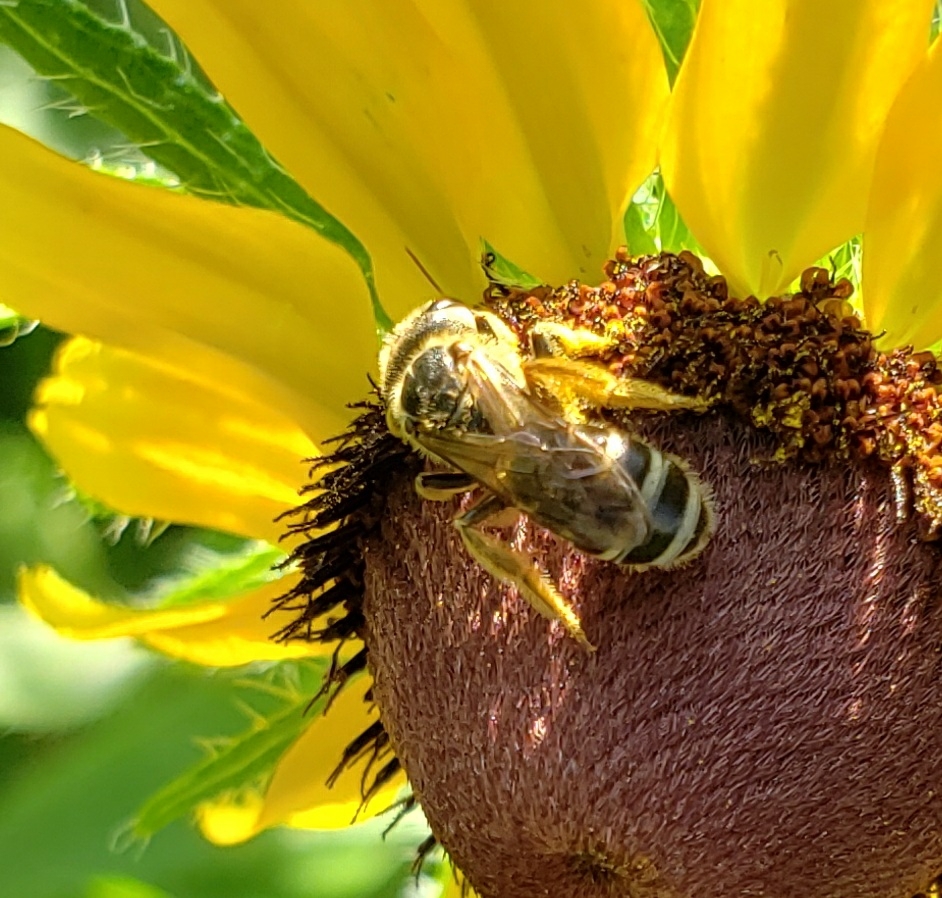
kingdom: Animalia
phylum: Arthropoda
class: Insecta
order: Hymenoptera
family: Halictidae
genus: Halictus
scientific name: Halictus ligatus
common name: Ligated furrow bee
